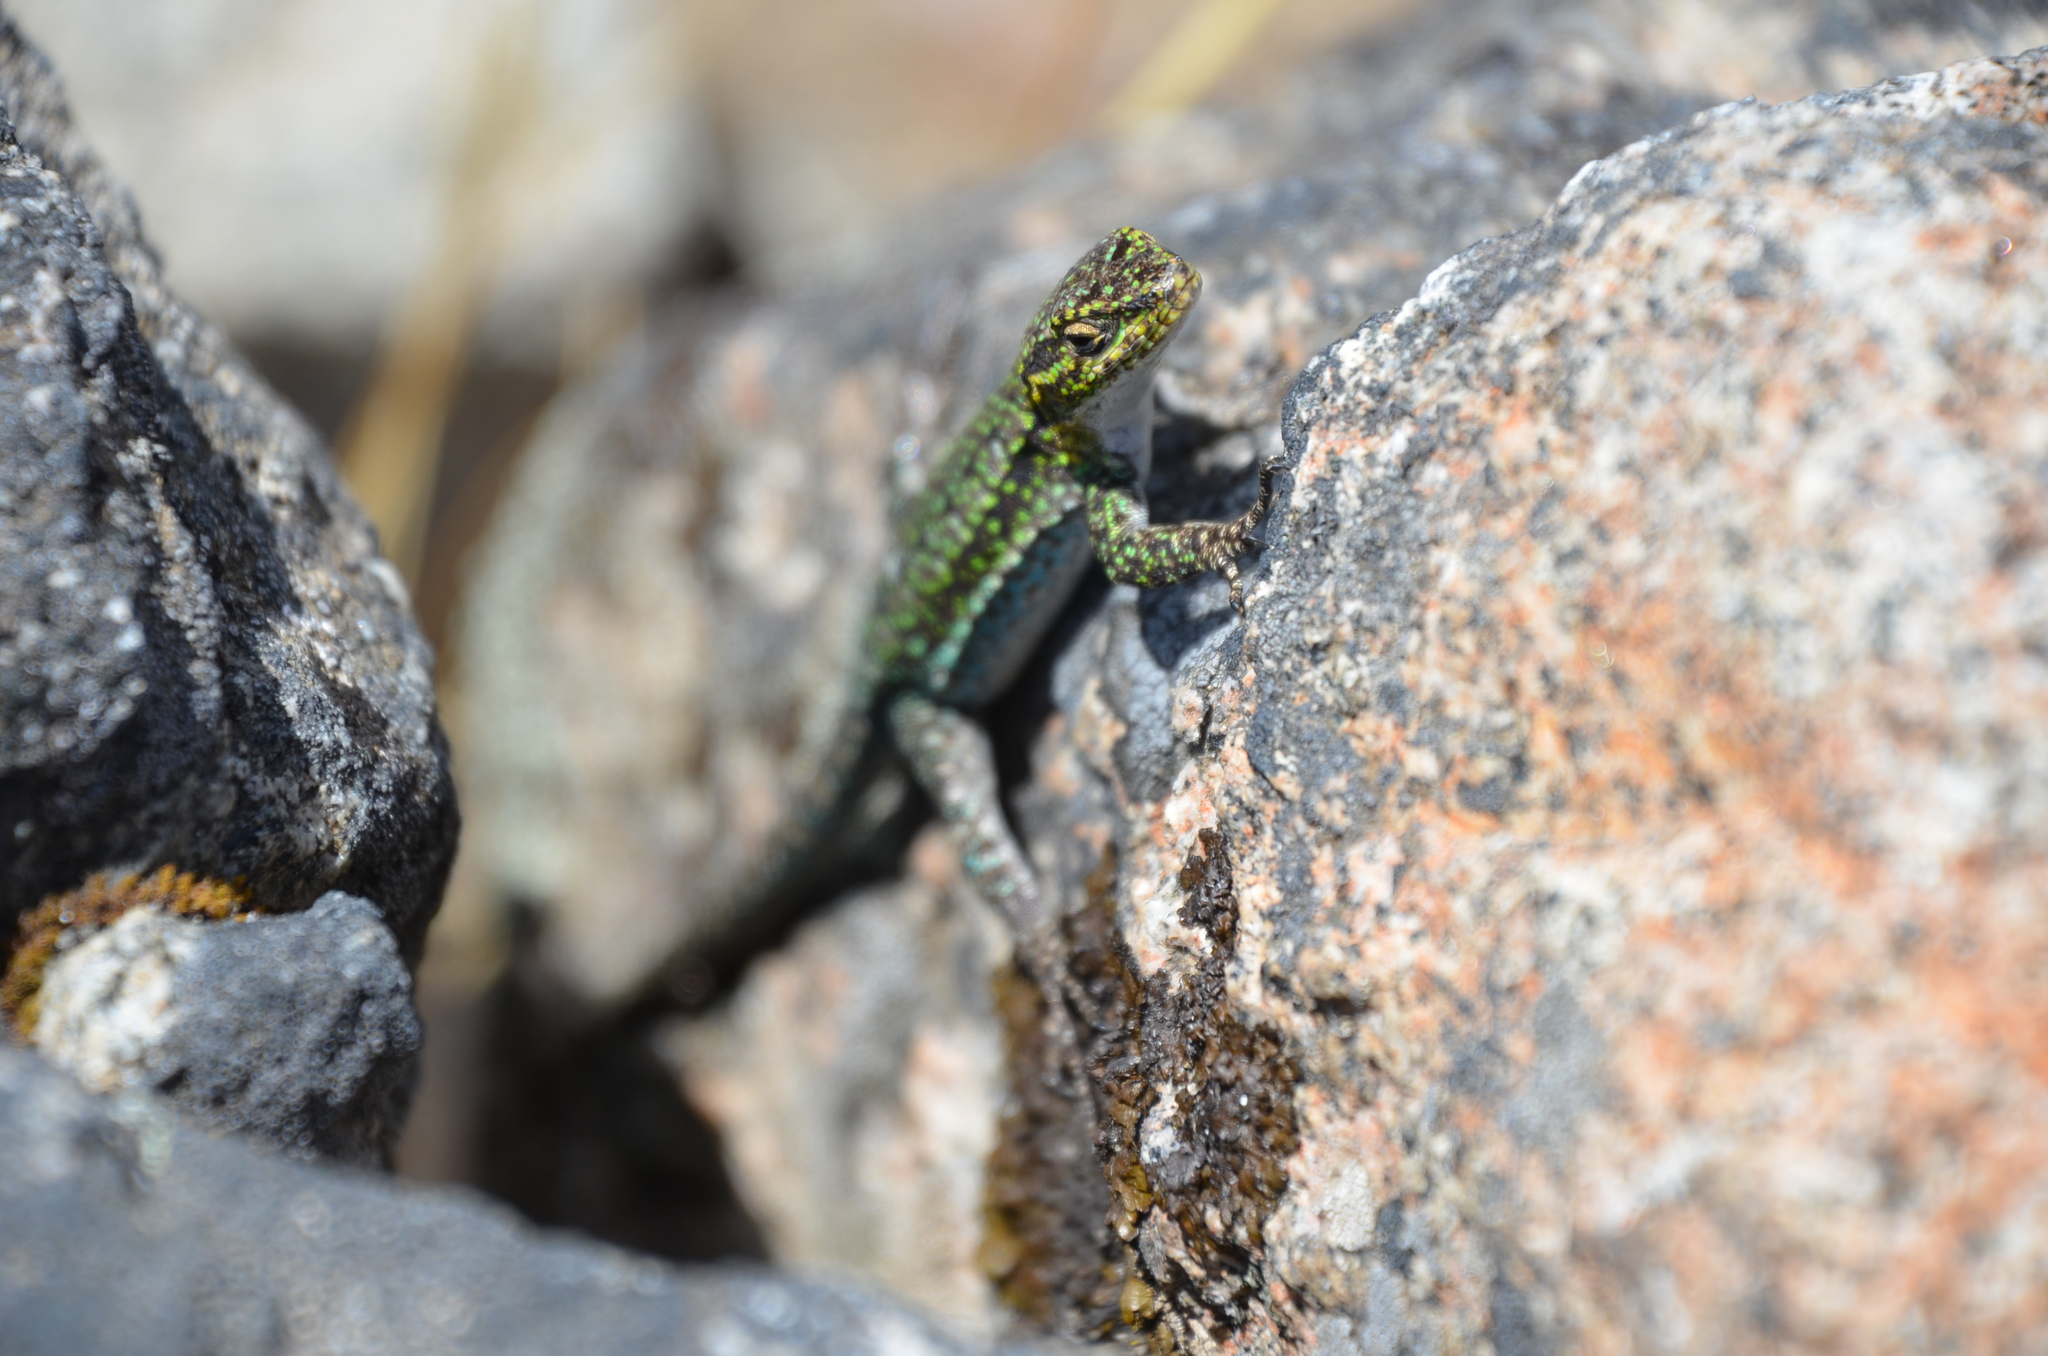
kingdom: Animalia
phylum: Chordata
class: Squamata
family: Liolaemidae
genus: Liolaemus
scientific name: Liolaemus tenuis
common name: Thin tree iguana
